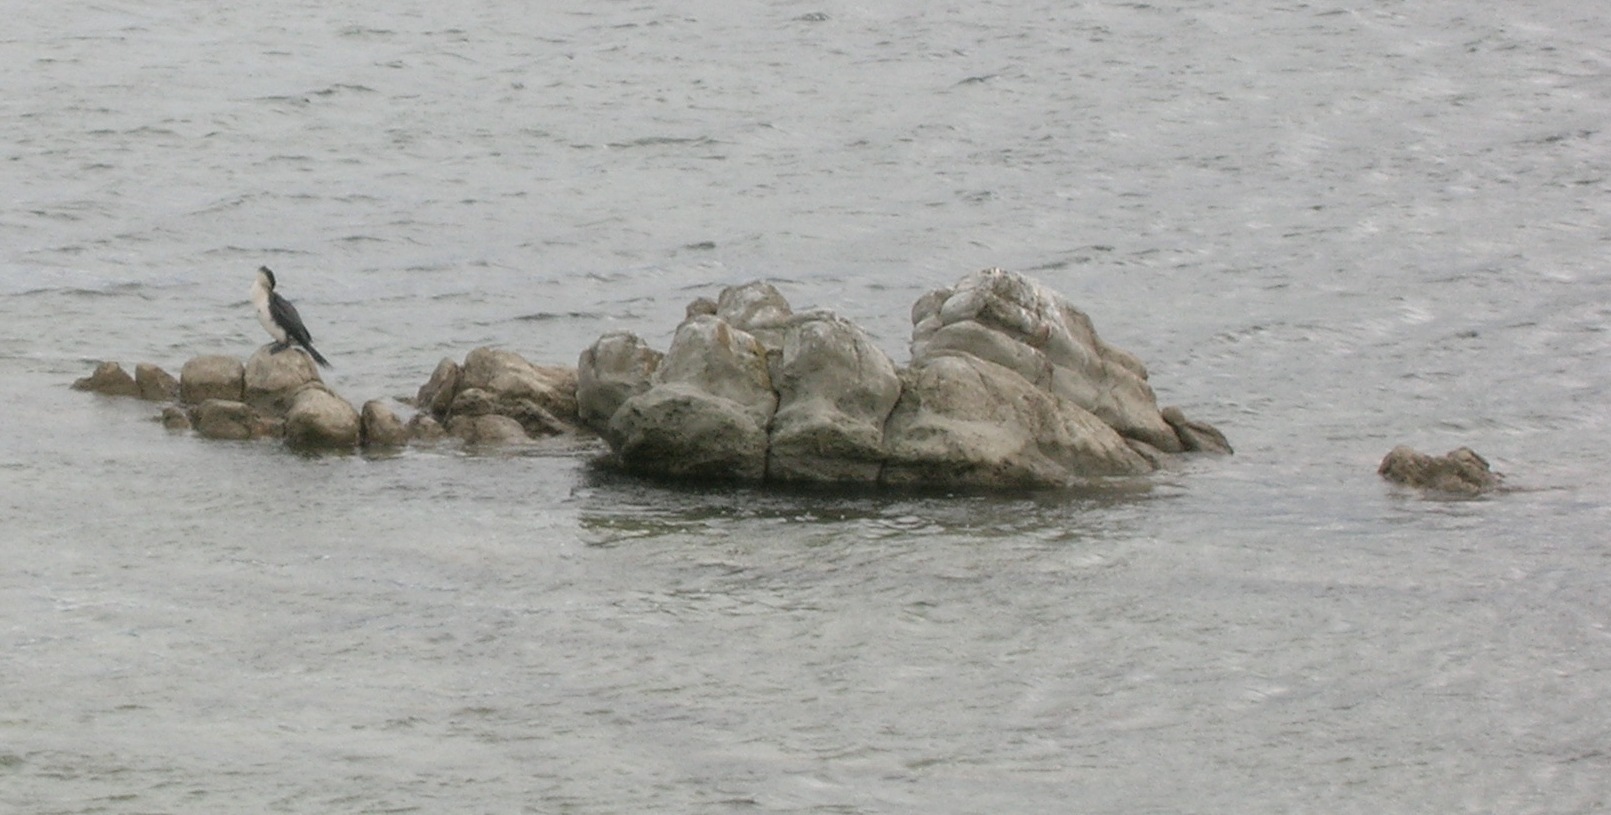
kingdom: Animalia
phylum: Chordata
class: Aves
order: Suliformes
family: Phalacrocoracidae
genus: Phalacrocorax
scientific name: Phalacrocorax varius
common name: Pied cormorant
